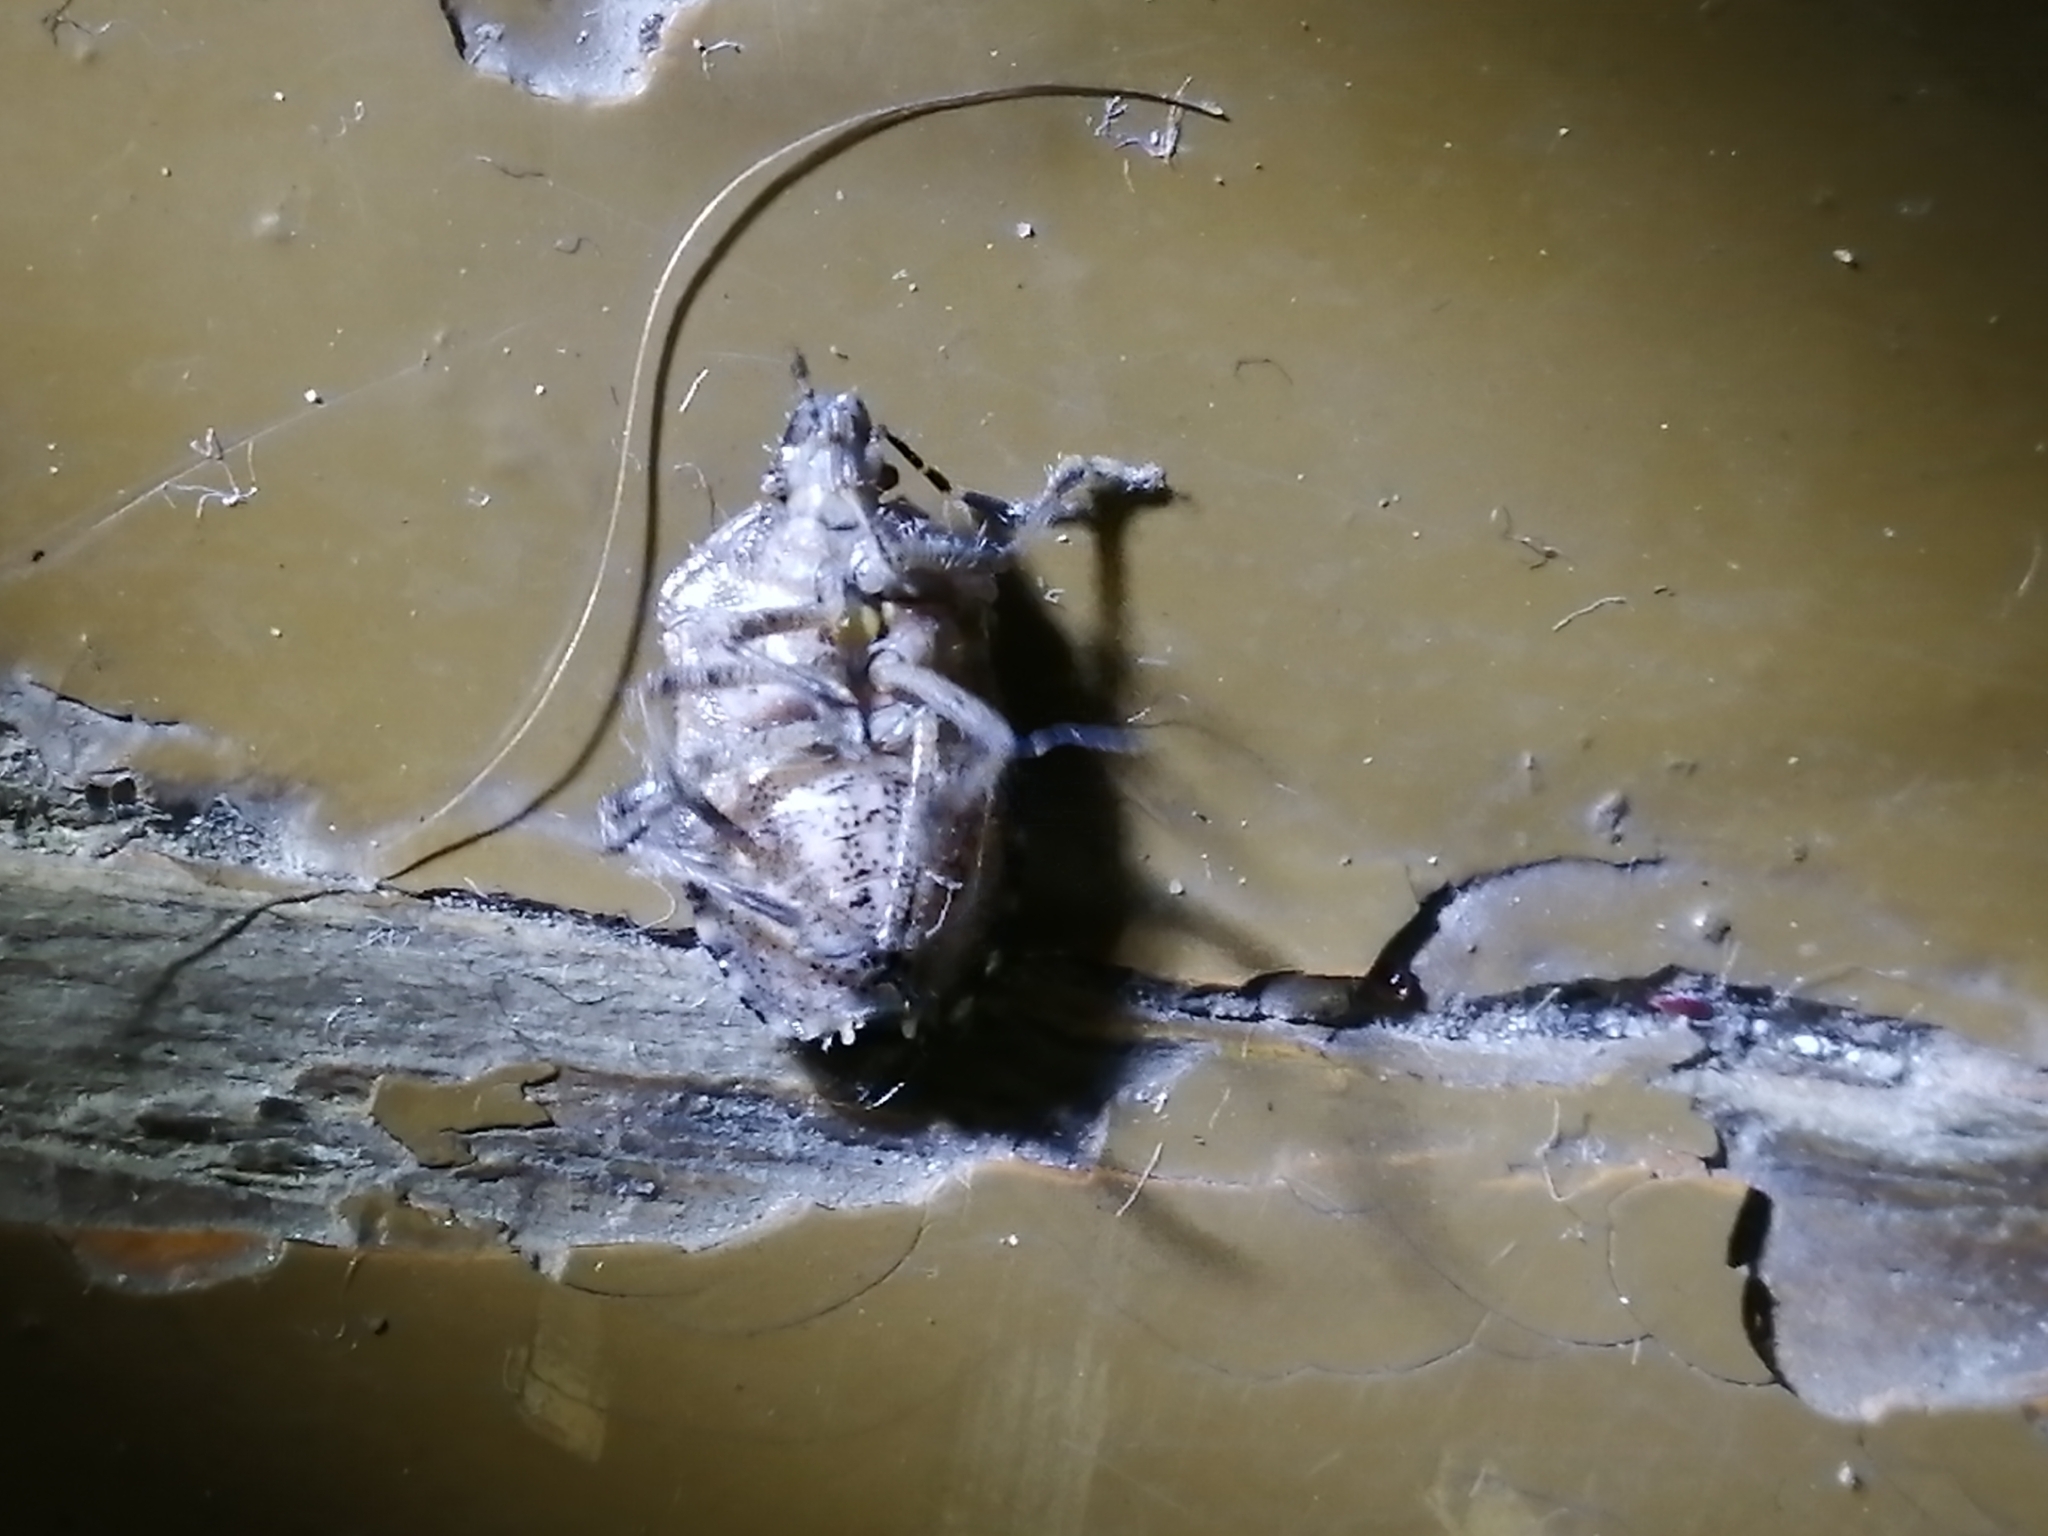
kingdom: Animalia
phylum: Arthropoda
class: Insecta
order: Hemiptera
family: Pentatomidae
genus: Dolycoris
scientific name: Dolycoris baccarum
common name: Sloe bug
